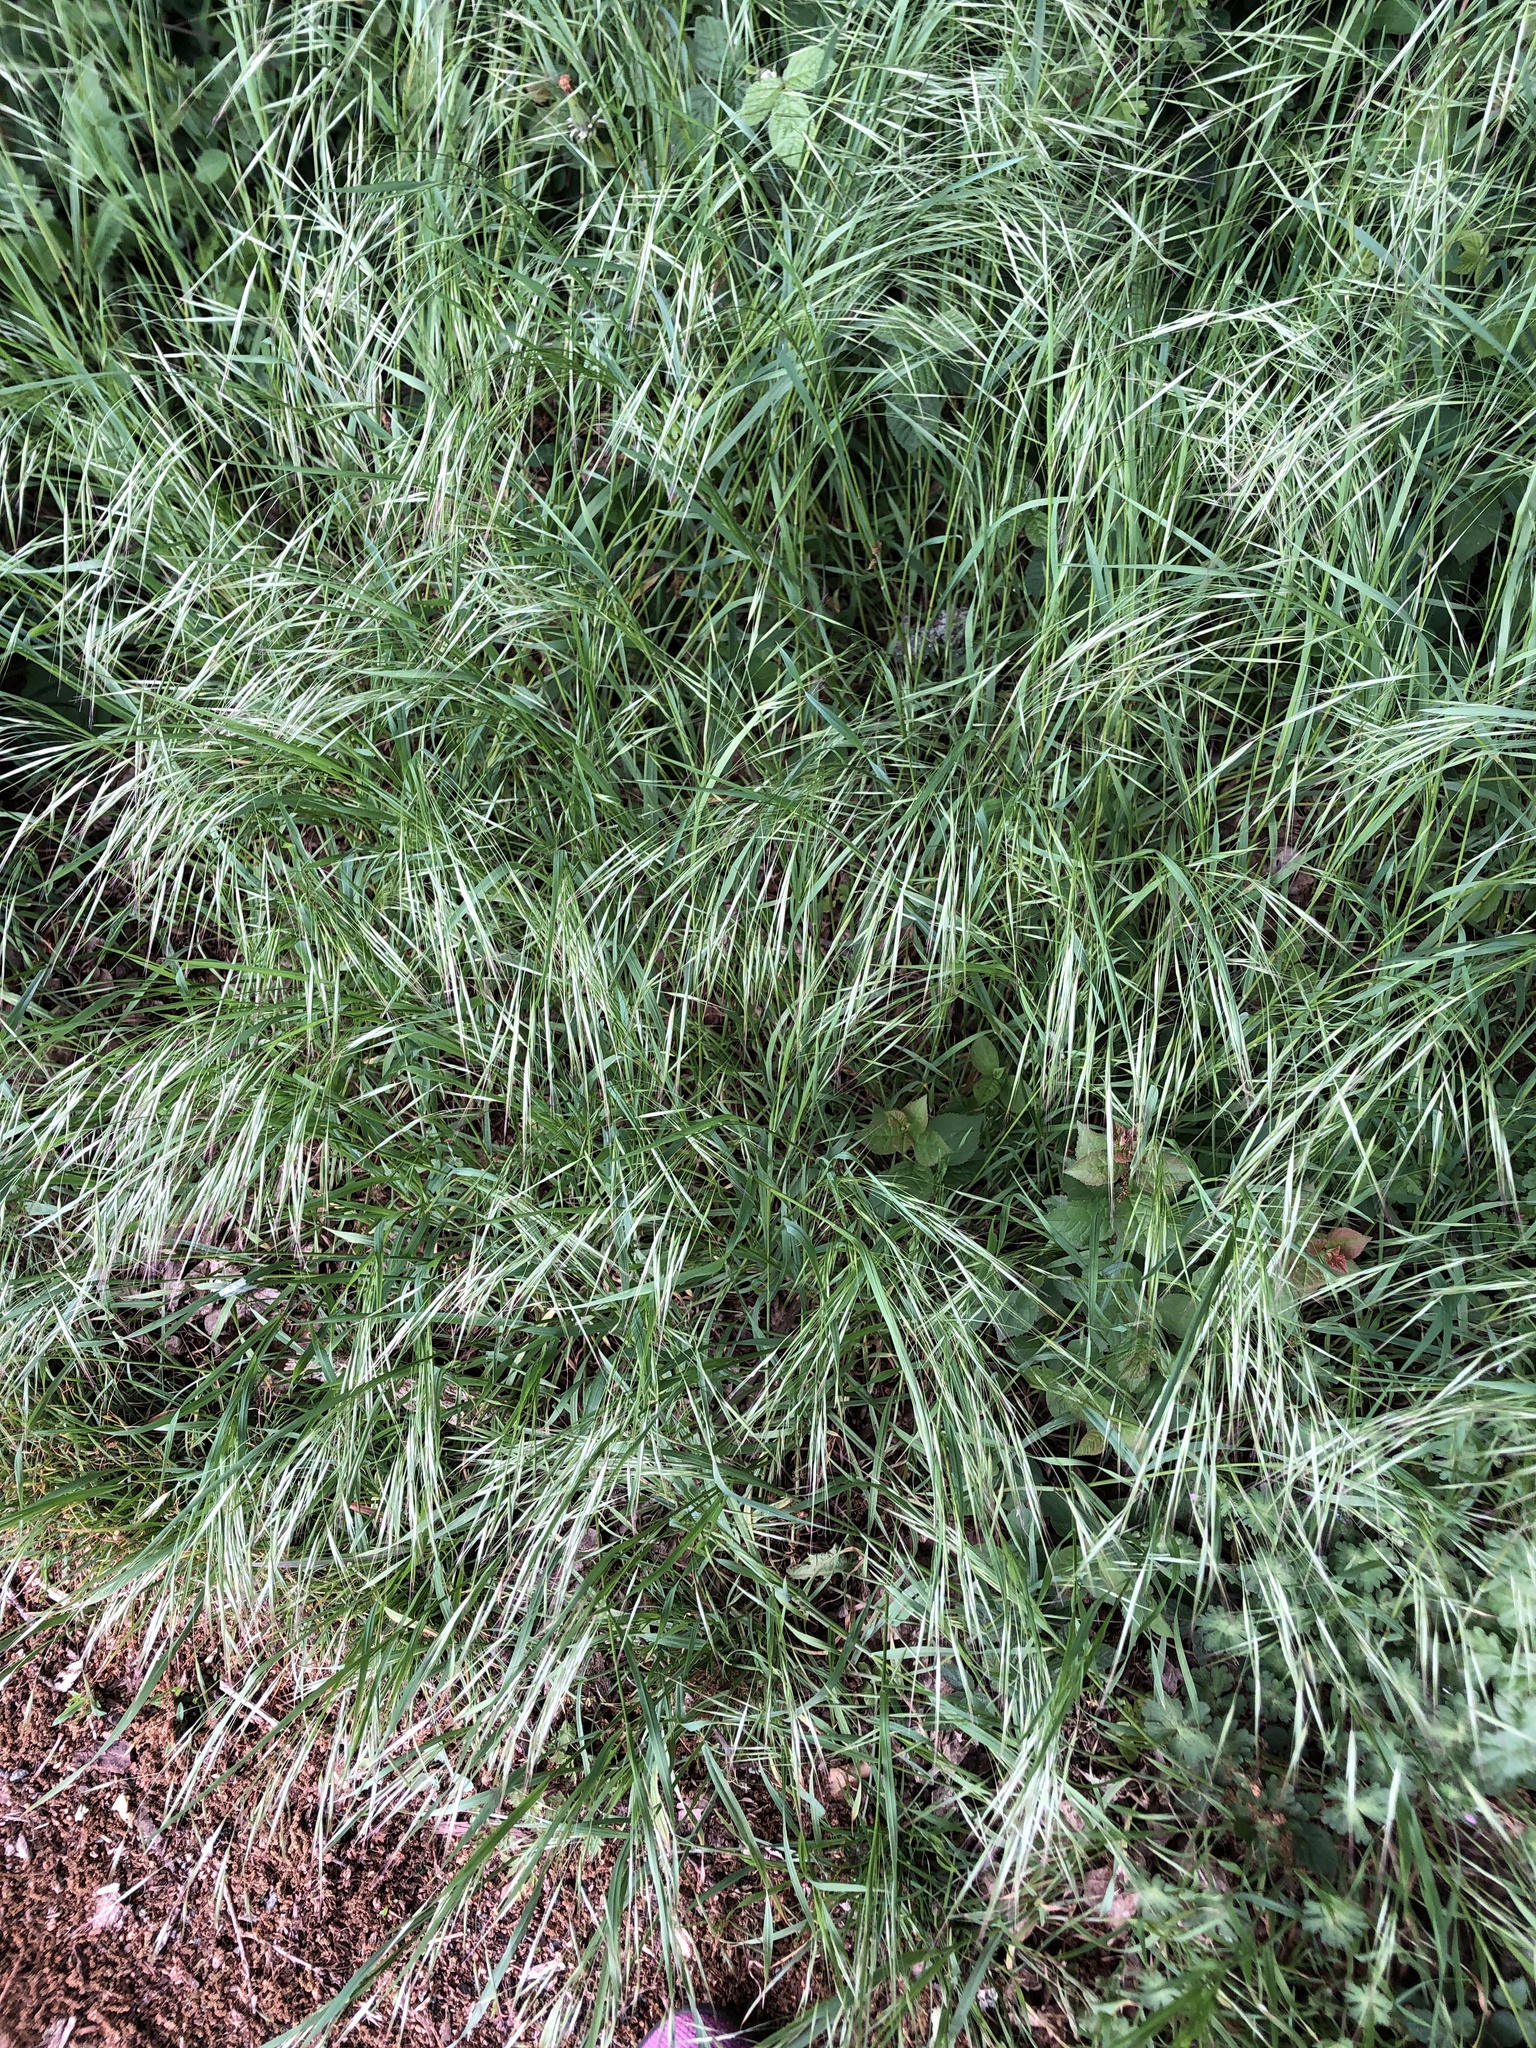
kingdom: Plantae
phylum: Tracheophyta
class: Liliopsida
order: Poales
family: Poaceae
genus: Bromus
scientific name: Bromus sterilis
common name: Poverty brome
